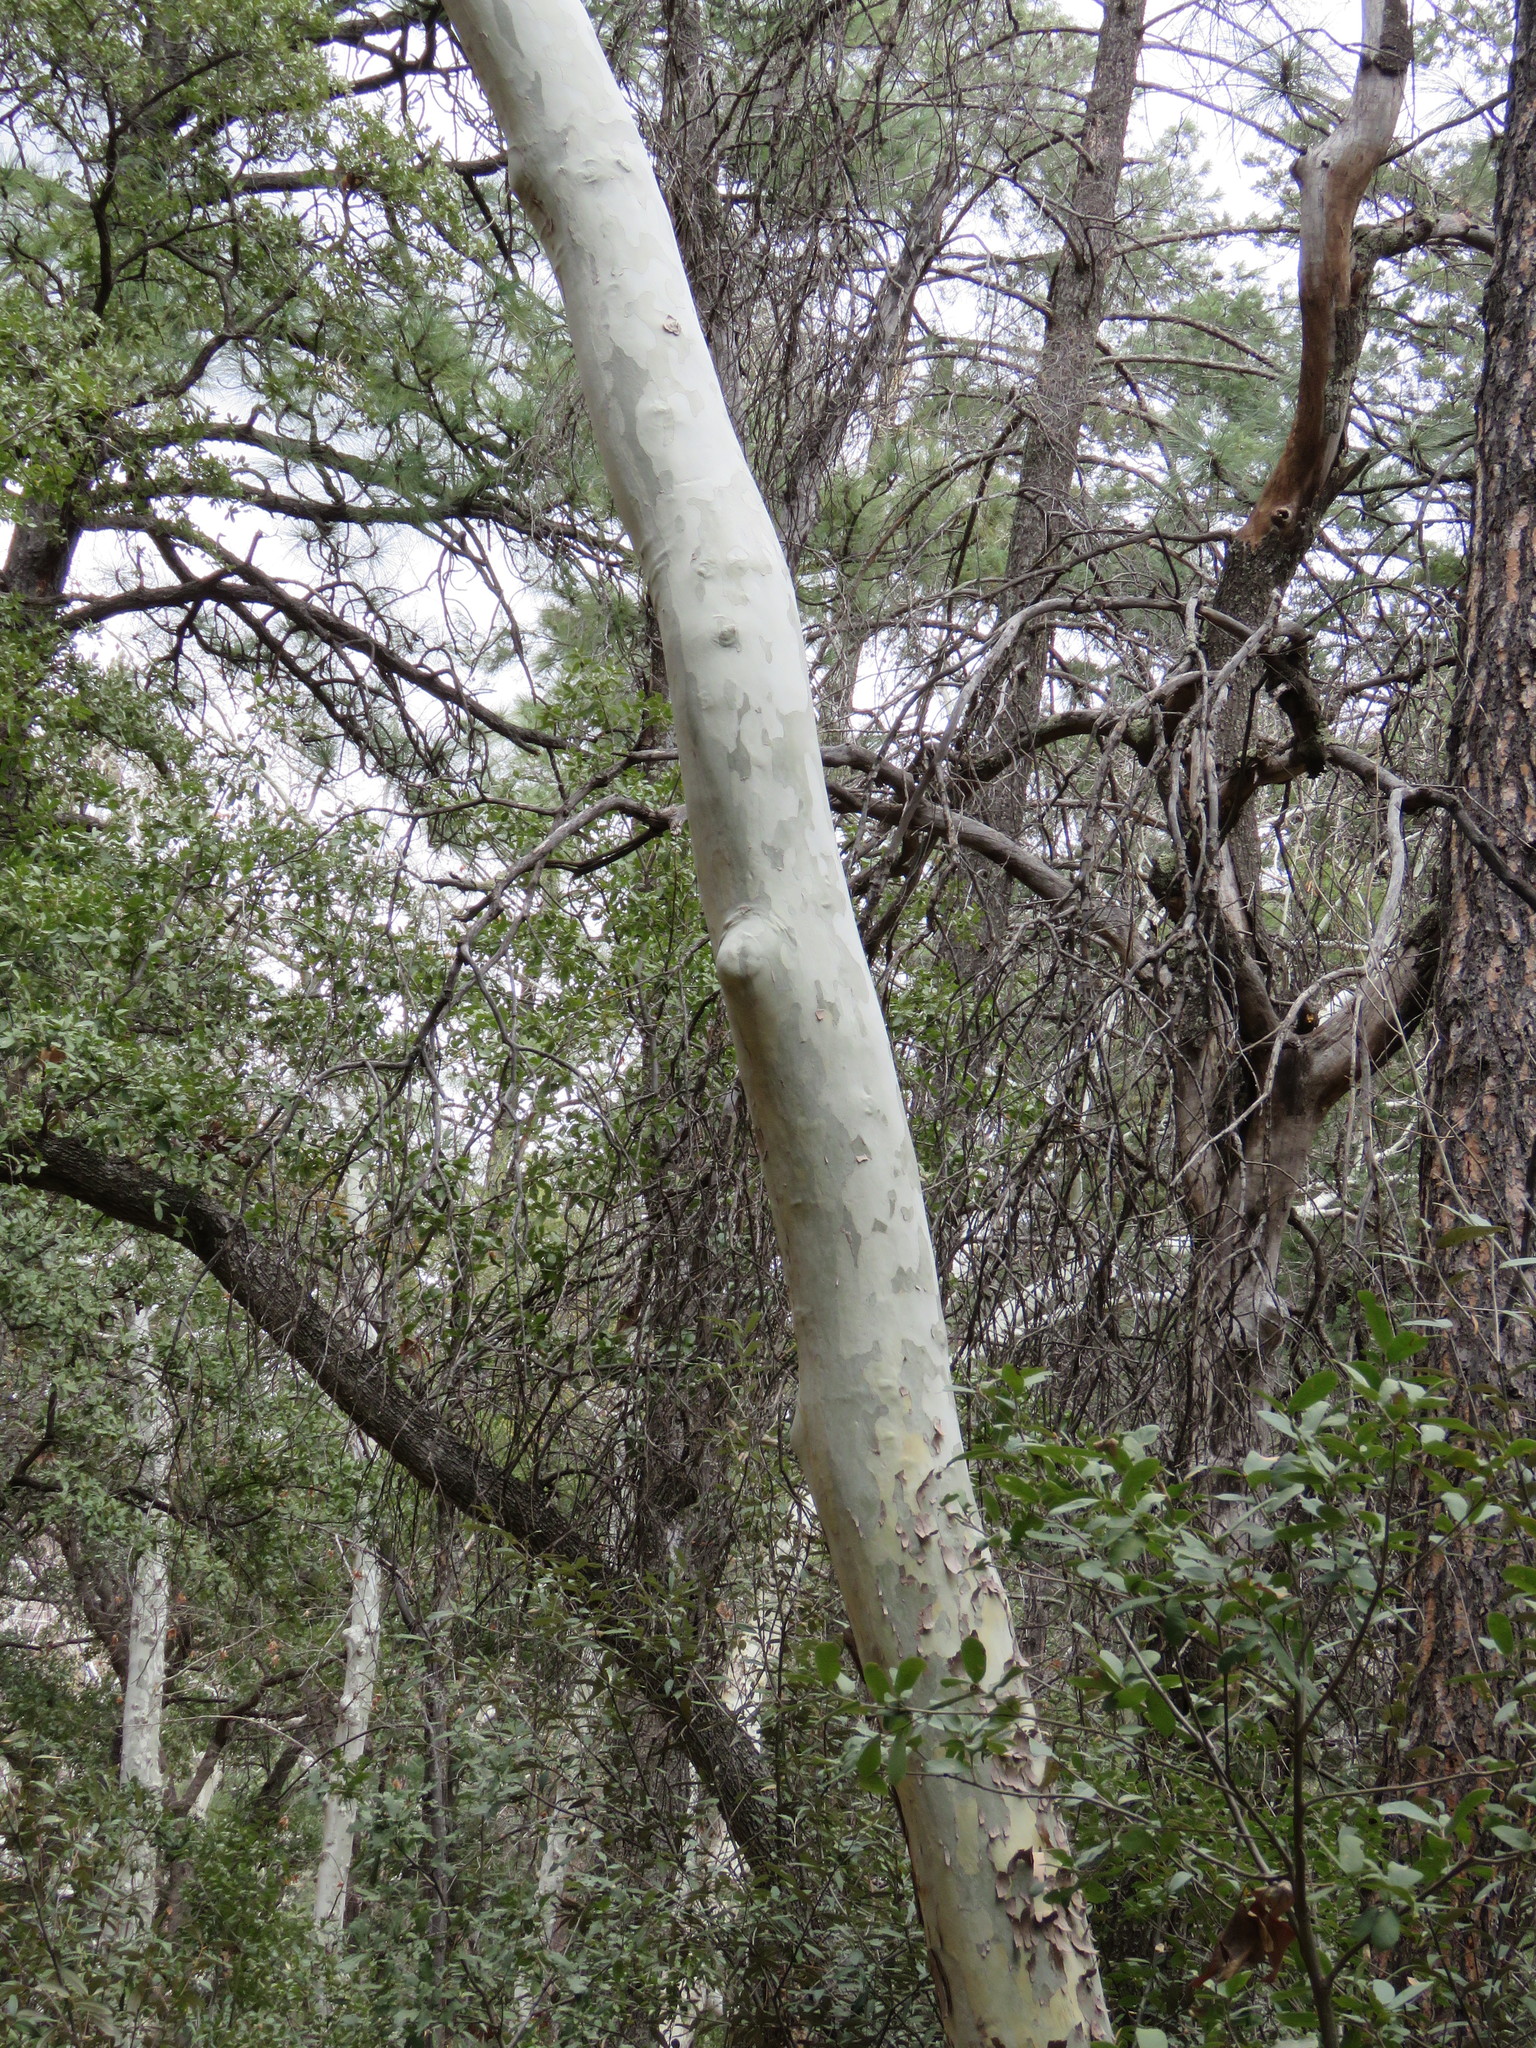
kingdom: Plantae
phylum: Tracheophyta
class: Magnoliopsida
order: Proteales
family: Platanaceae
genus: Platanus
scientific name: Platanus wrightii
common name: Arizona sycamore
